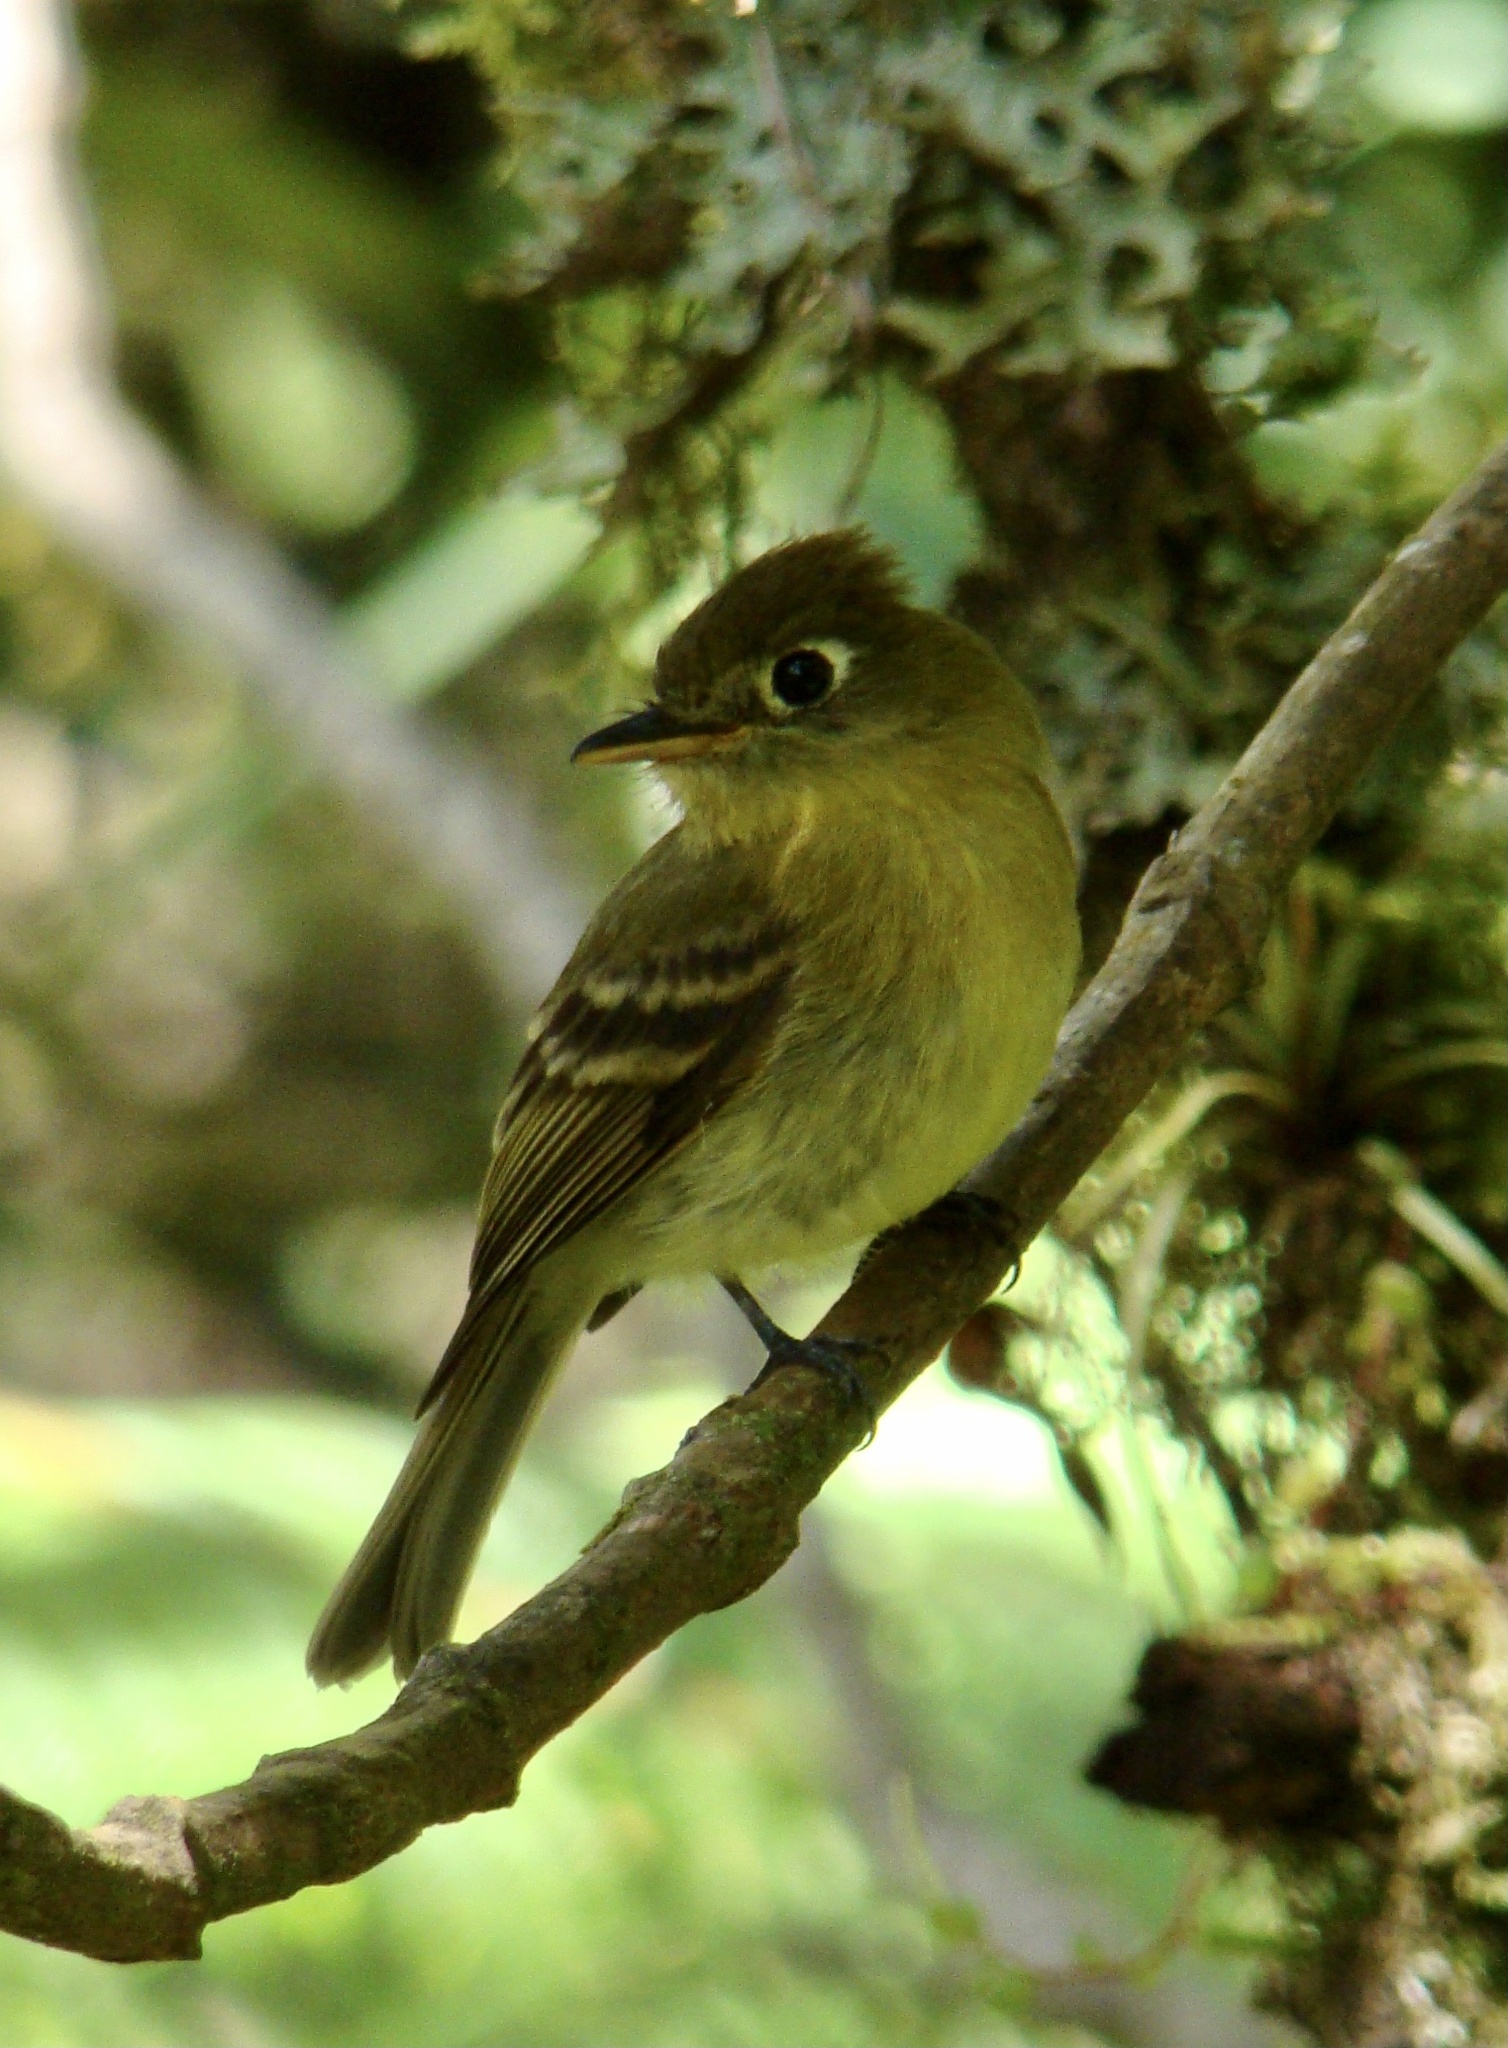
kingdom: Animalia
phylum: Chordata
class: Aves
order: Passeriformes
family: Tyrannidae
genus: Empidonax
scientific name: Empidonax flavescens
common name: Yellowish flycatcher
